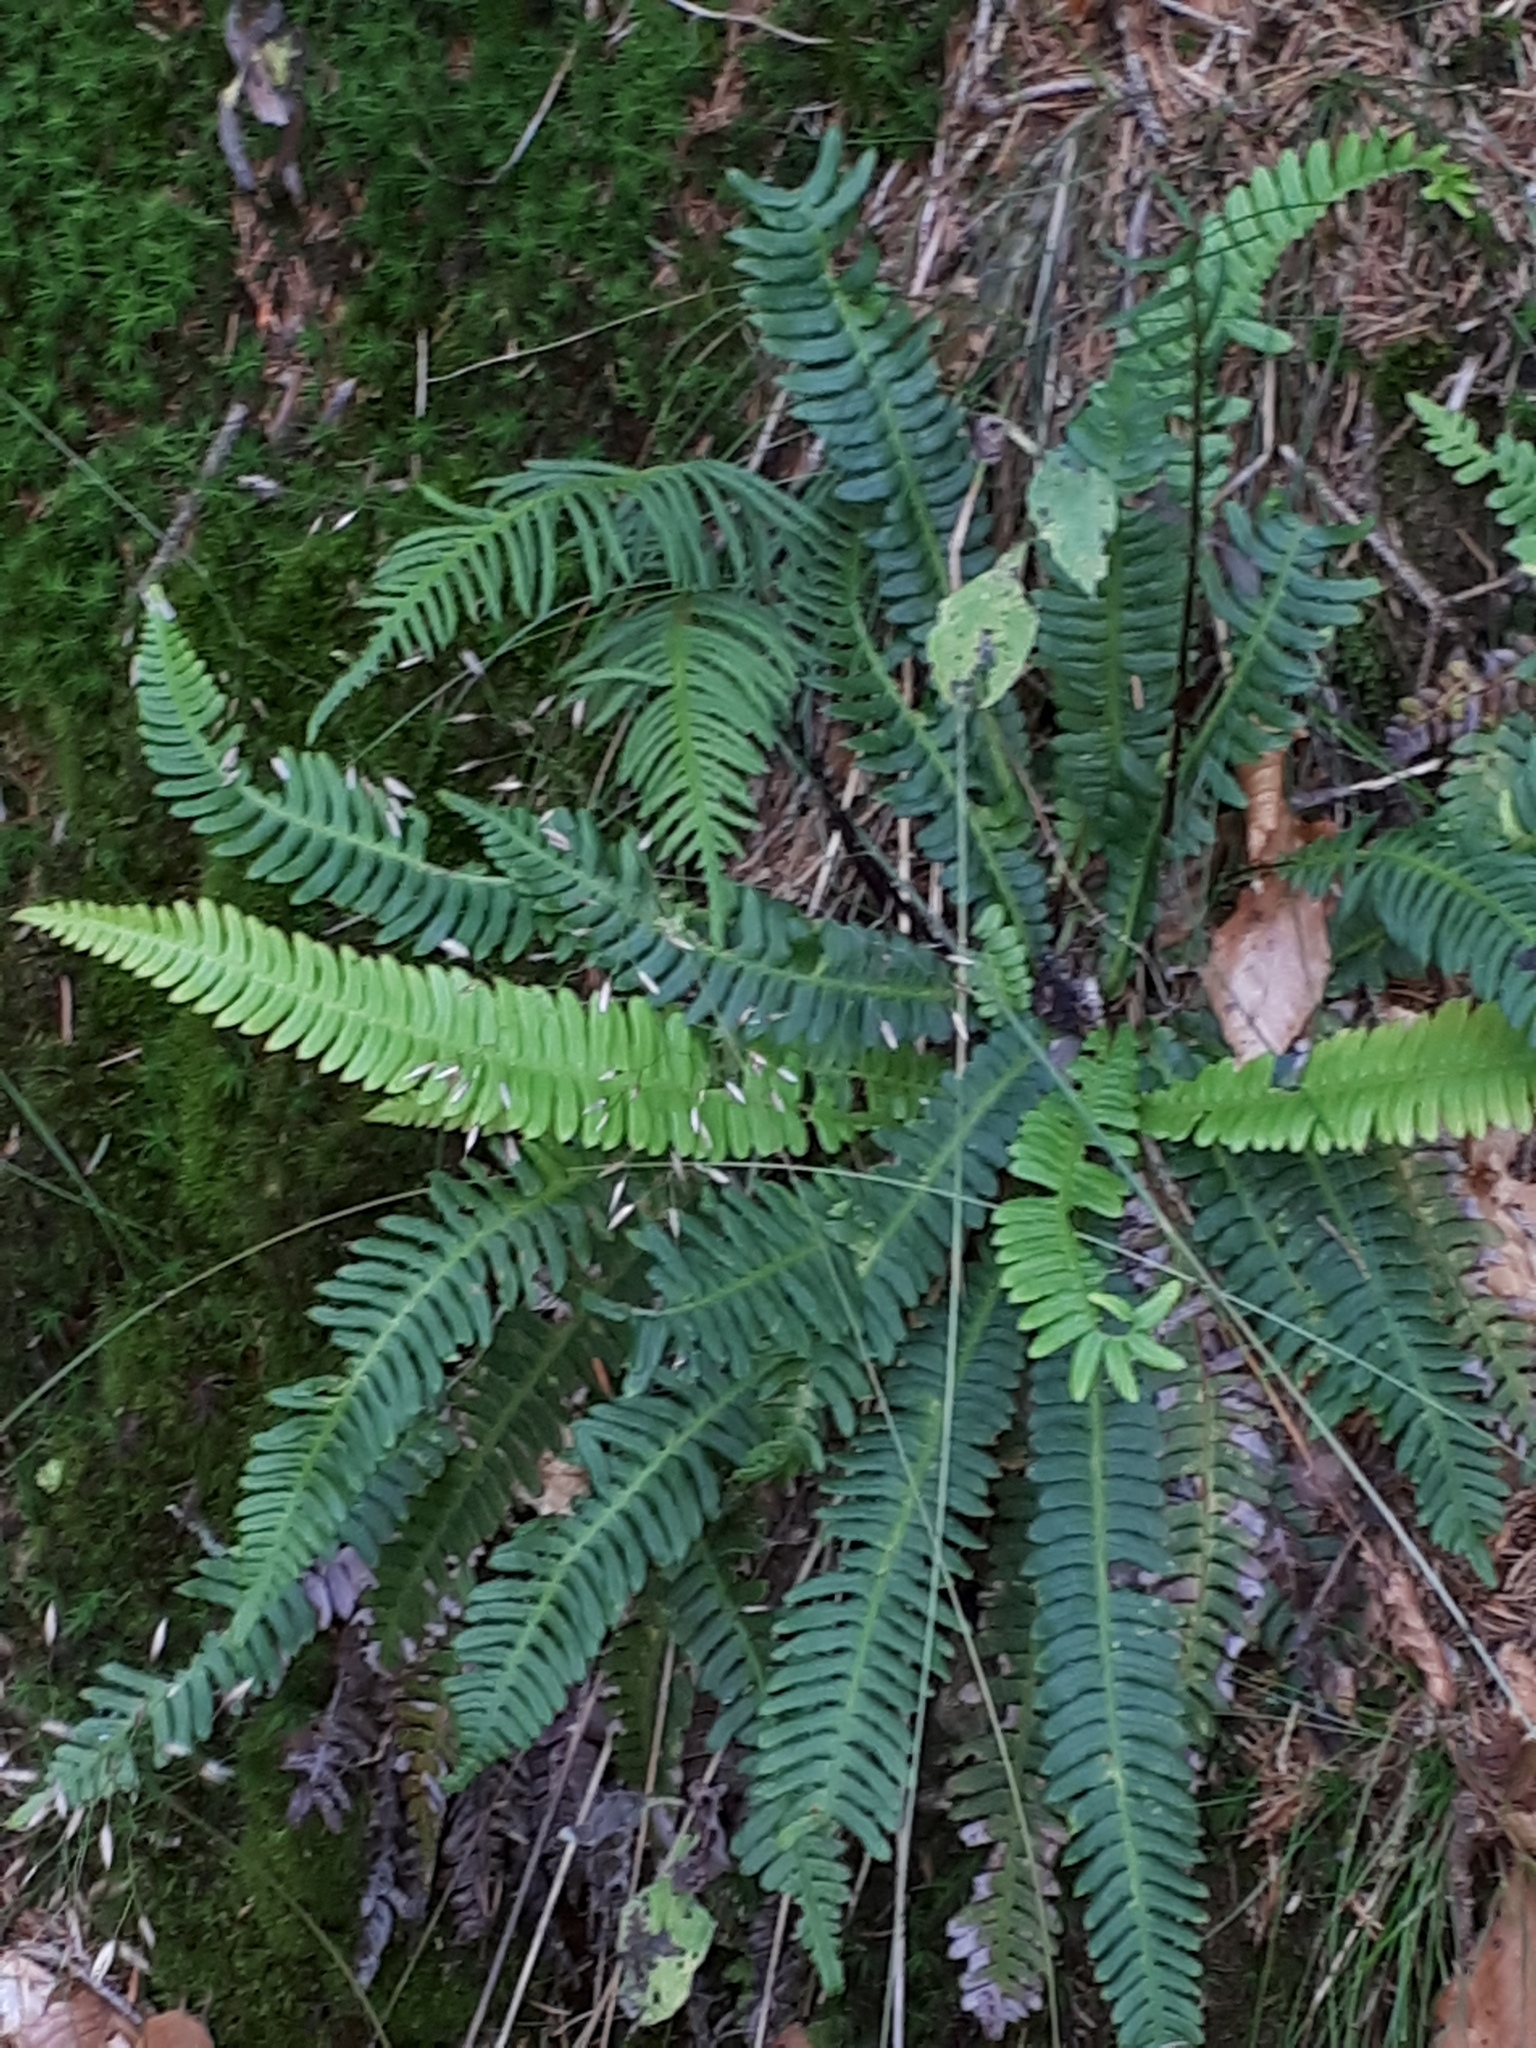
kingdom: Plantae
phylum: Tracheophyta
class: Polypodiopsida
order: Polypodiales
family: Blechnaceae
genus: Struthiopteris
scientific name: Struthiopteris spicant
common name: Deer fern
